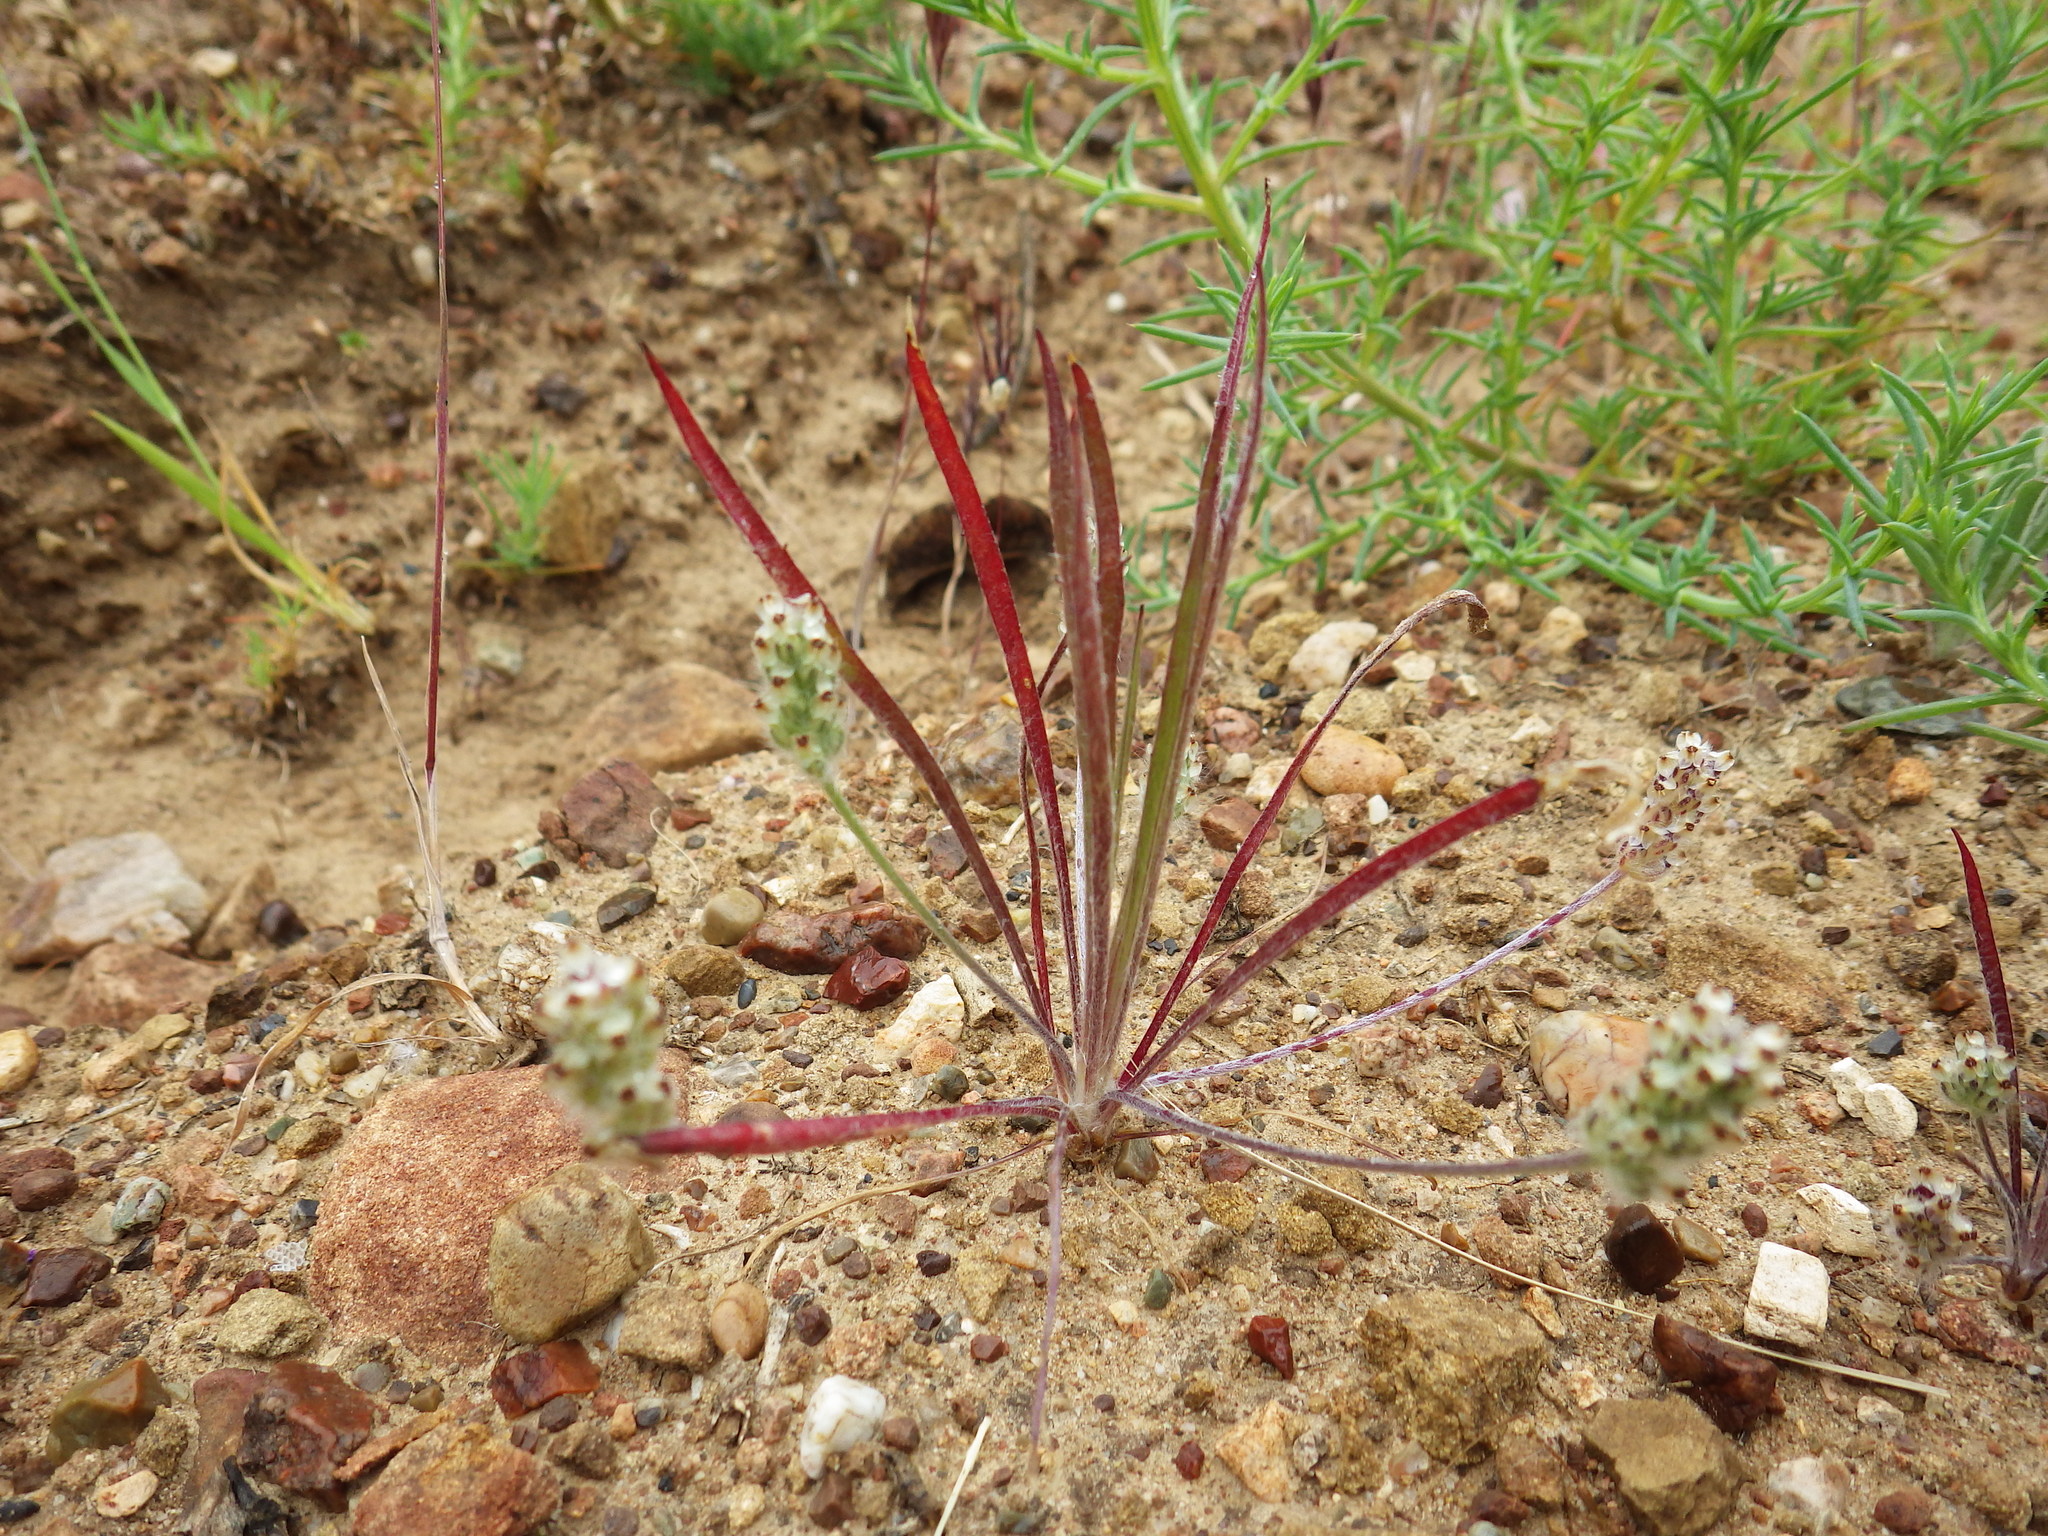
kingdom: Plantae
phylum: Tracheophyta
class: Magnoliopsida
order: Lamiales
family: Plantaginaceae
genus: Plantago
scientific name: Plantago erecta
